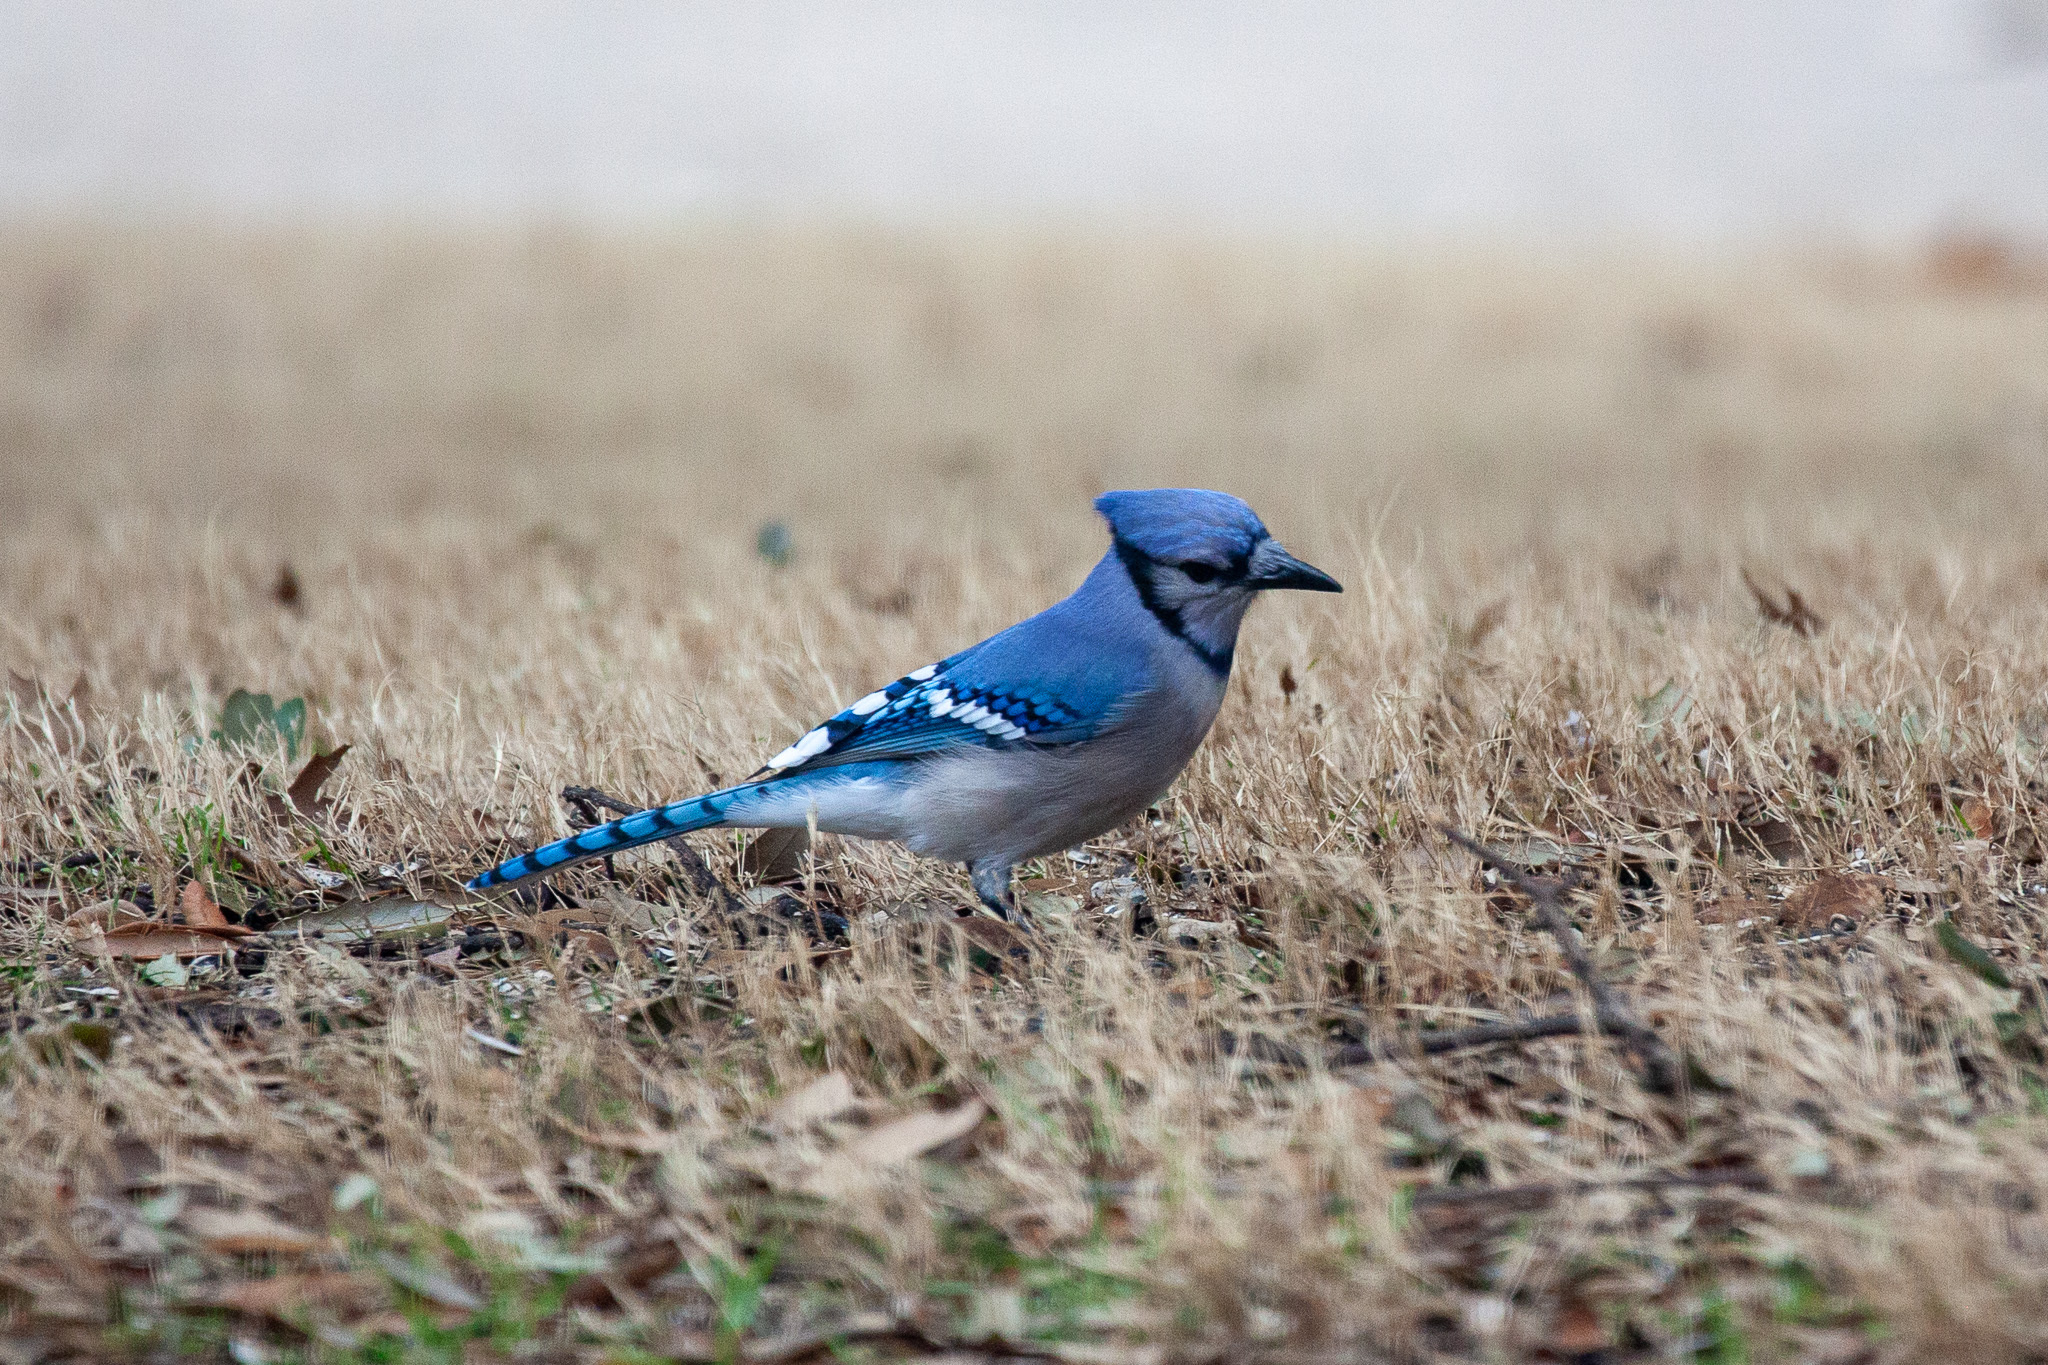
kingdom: Animalia
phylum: Chordata
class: Aves
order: Passeriformes
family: Corvidae
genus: Cyanocitta
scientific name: Cyanocitta cristata
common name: Blue jay
